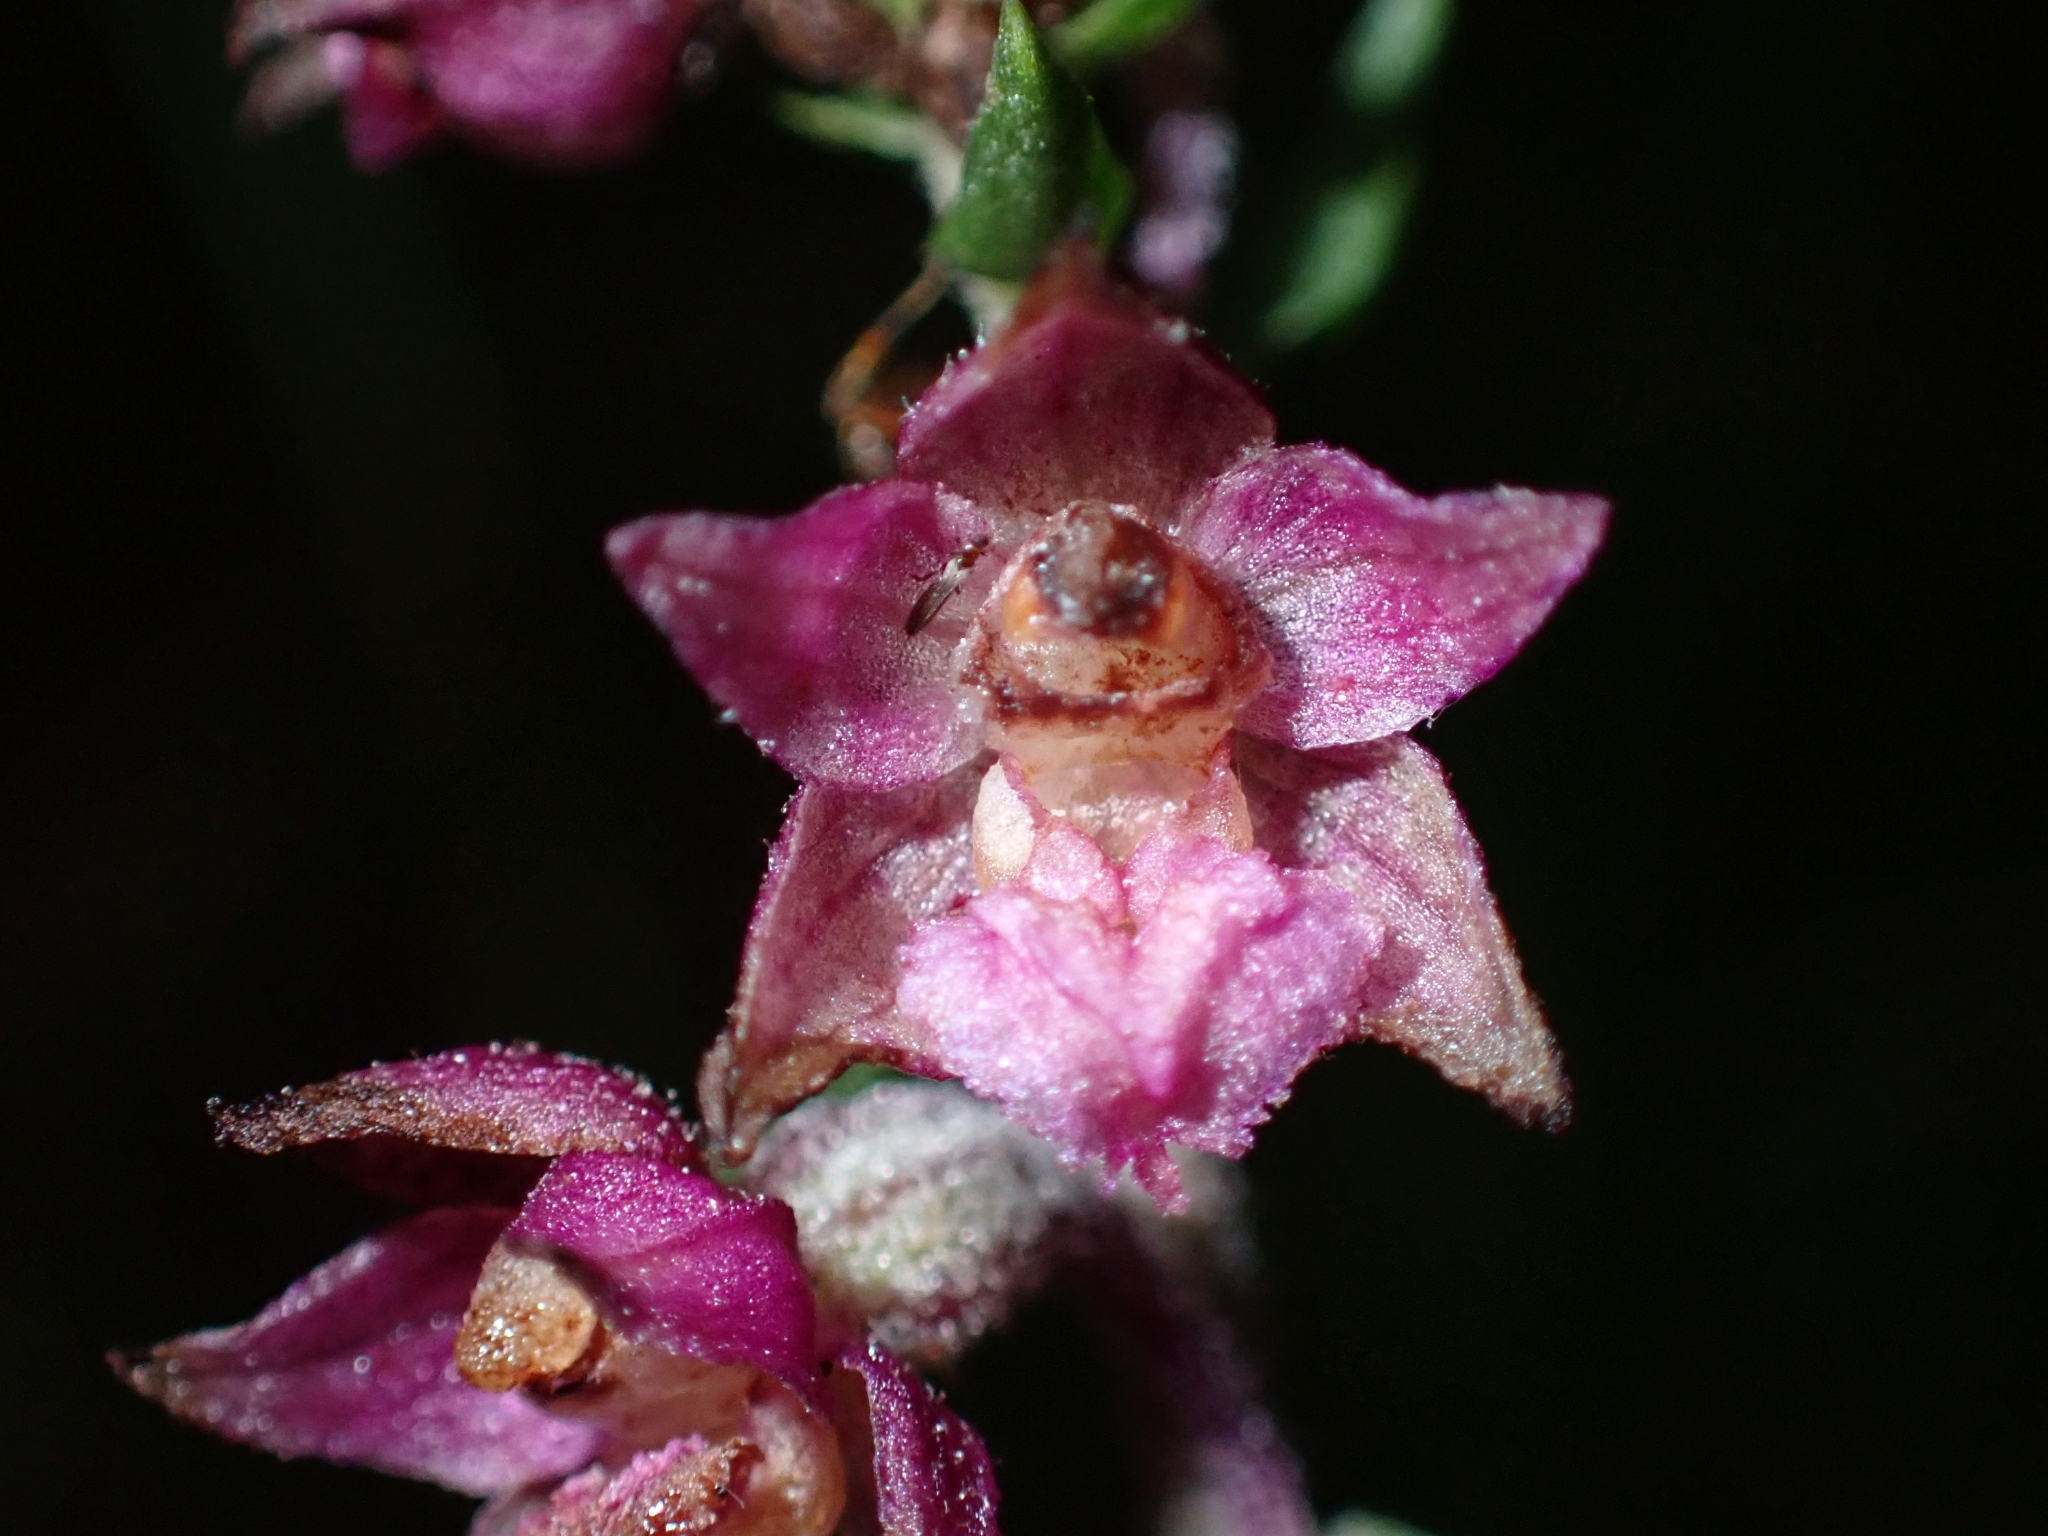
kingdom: Plantae
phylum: Tracheophyta
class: Liliopsida
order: Asparagales
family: Orchidaceae
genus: Epipactis
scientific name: Epipactis atrorubens
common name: Dark-red helleborine
